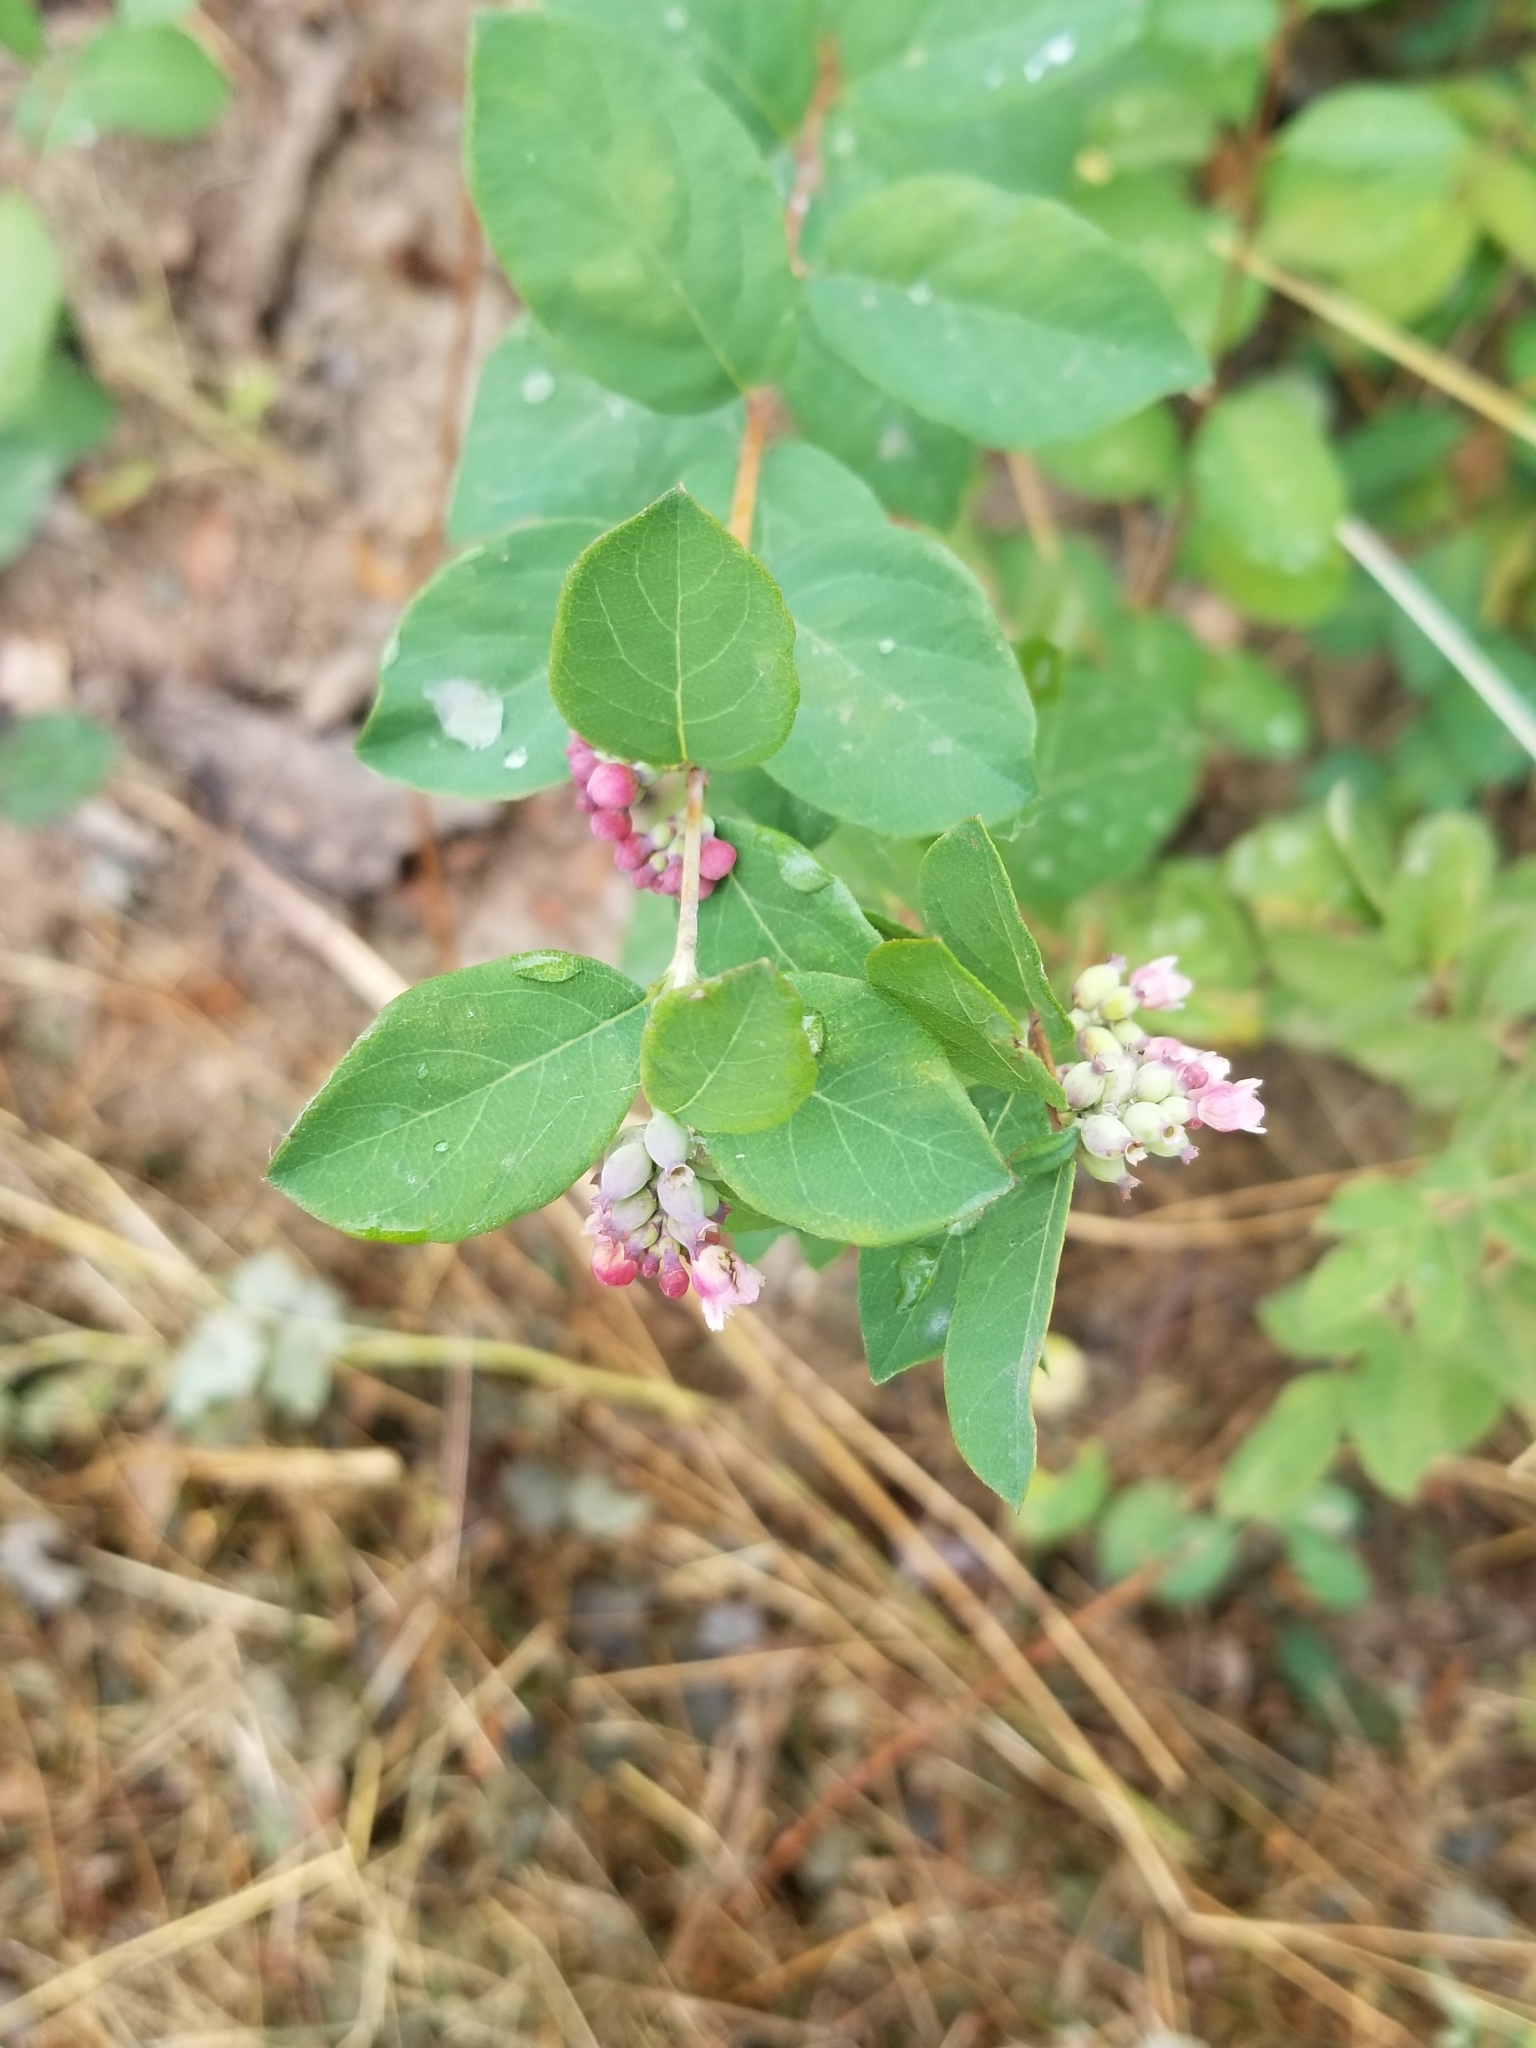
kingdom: Plantae
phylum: Tracheophyta
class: Magnoliopsida
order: Dipsacales
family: Caprifoliaceae
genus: Symphoricarpos
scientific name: Symphoricarpos albus
